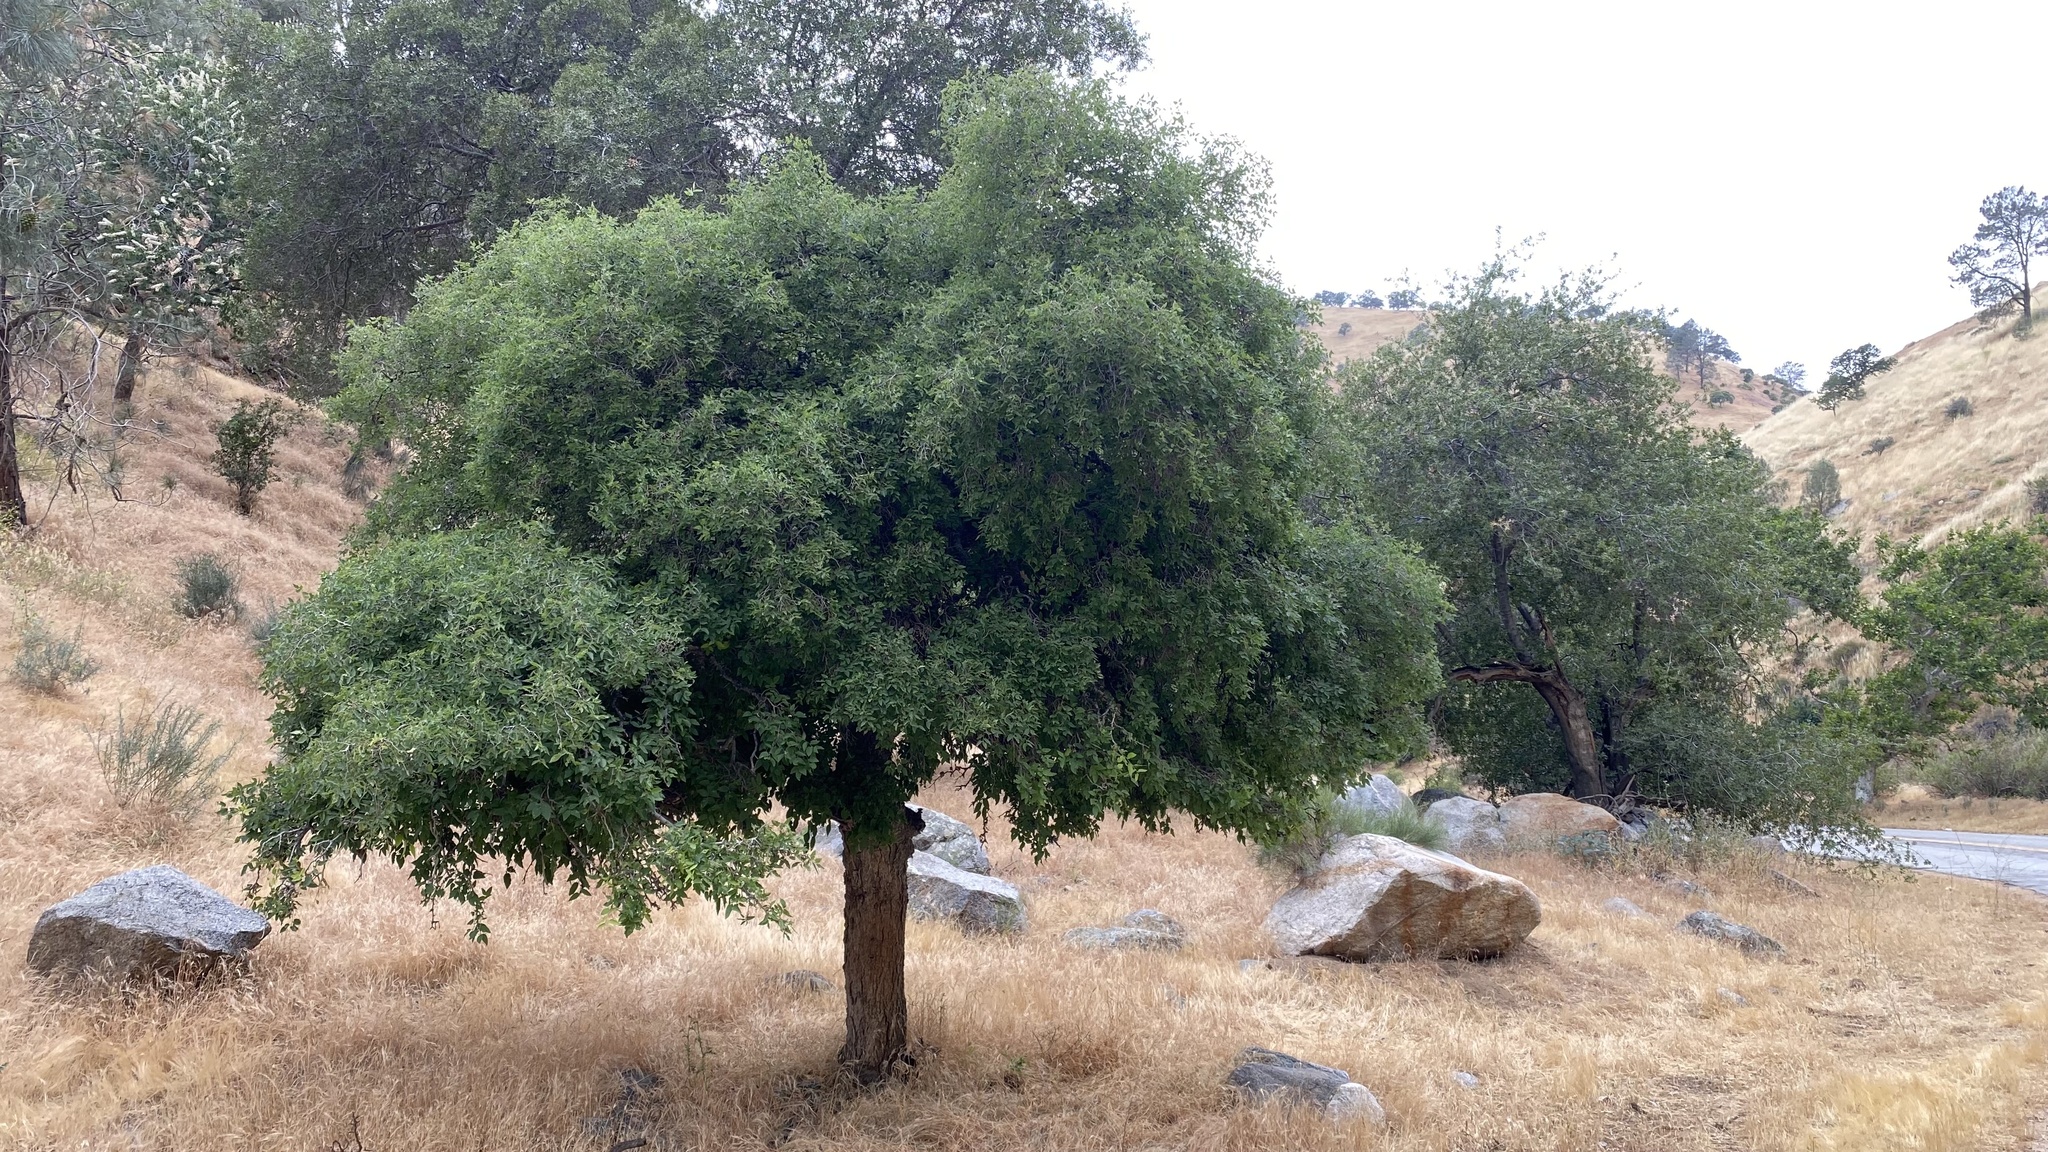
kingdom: Plantae
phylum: Tracheophyta
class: Magnoliopsida
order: Rosales
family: Cannabaceae
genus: Celtis
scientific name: Celtis reticulata
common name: Netleaf hackberry
